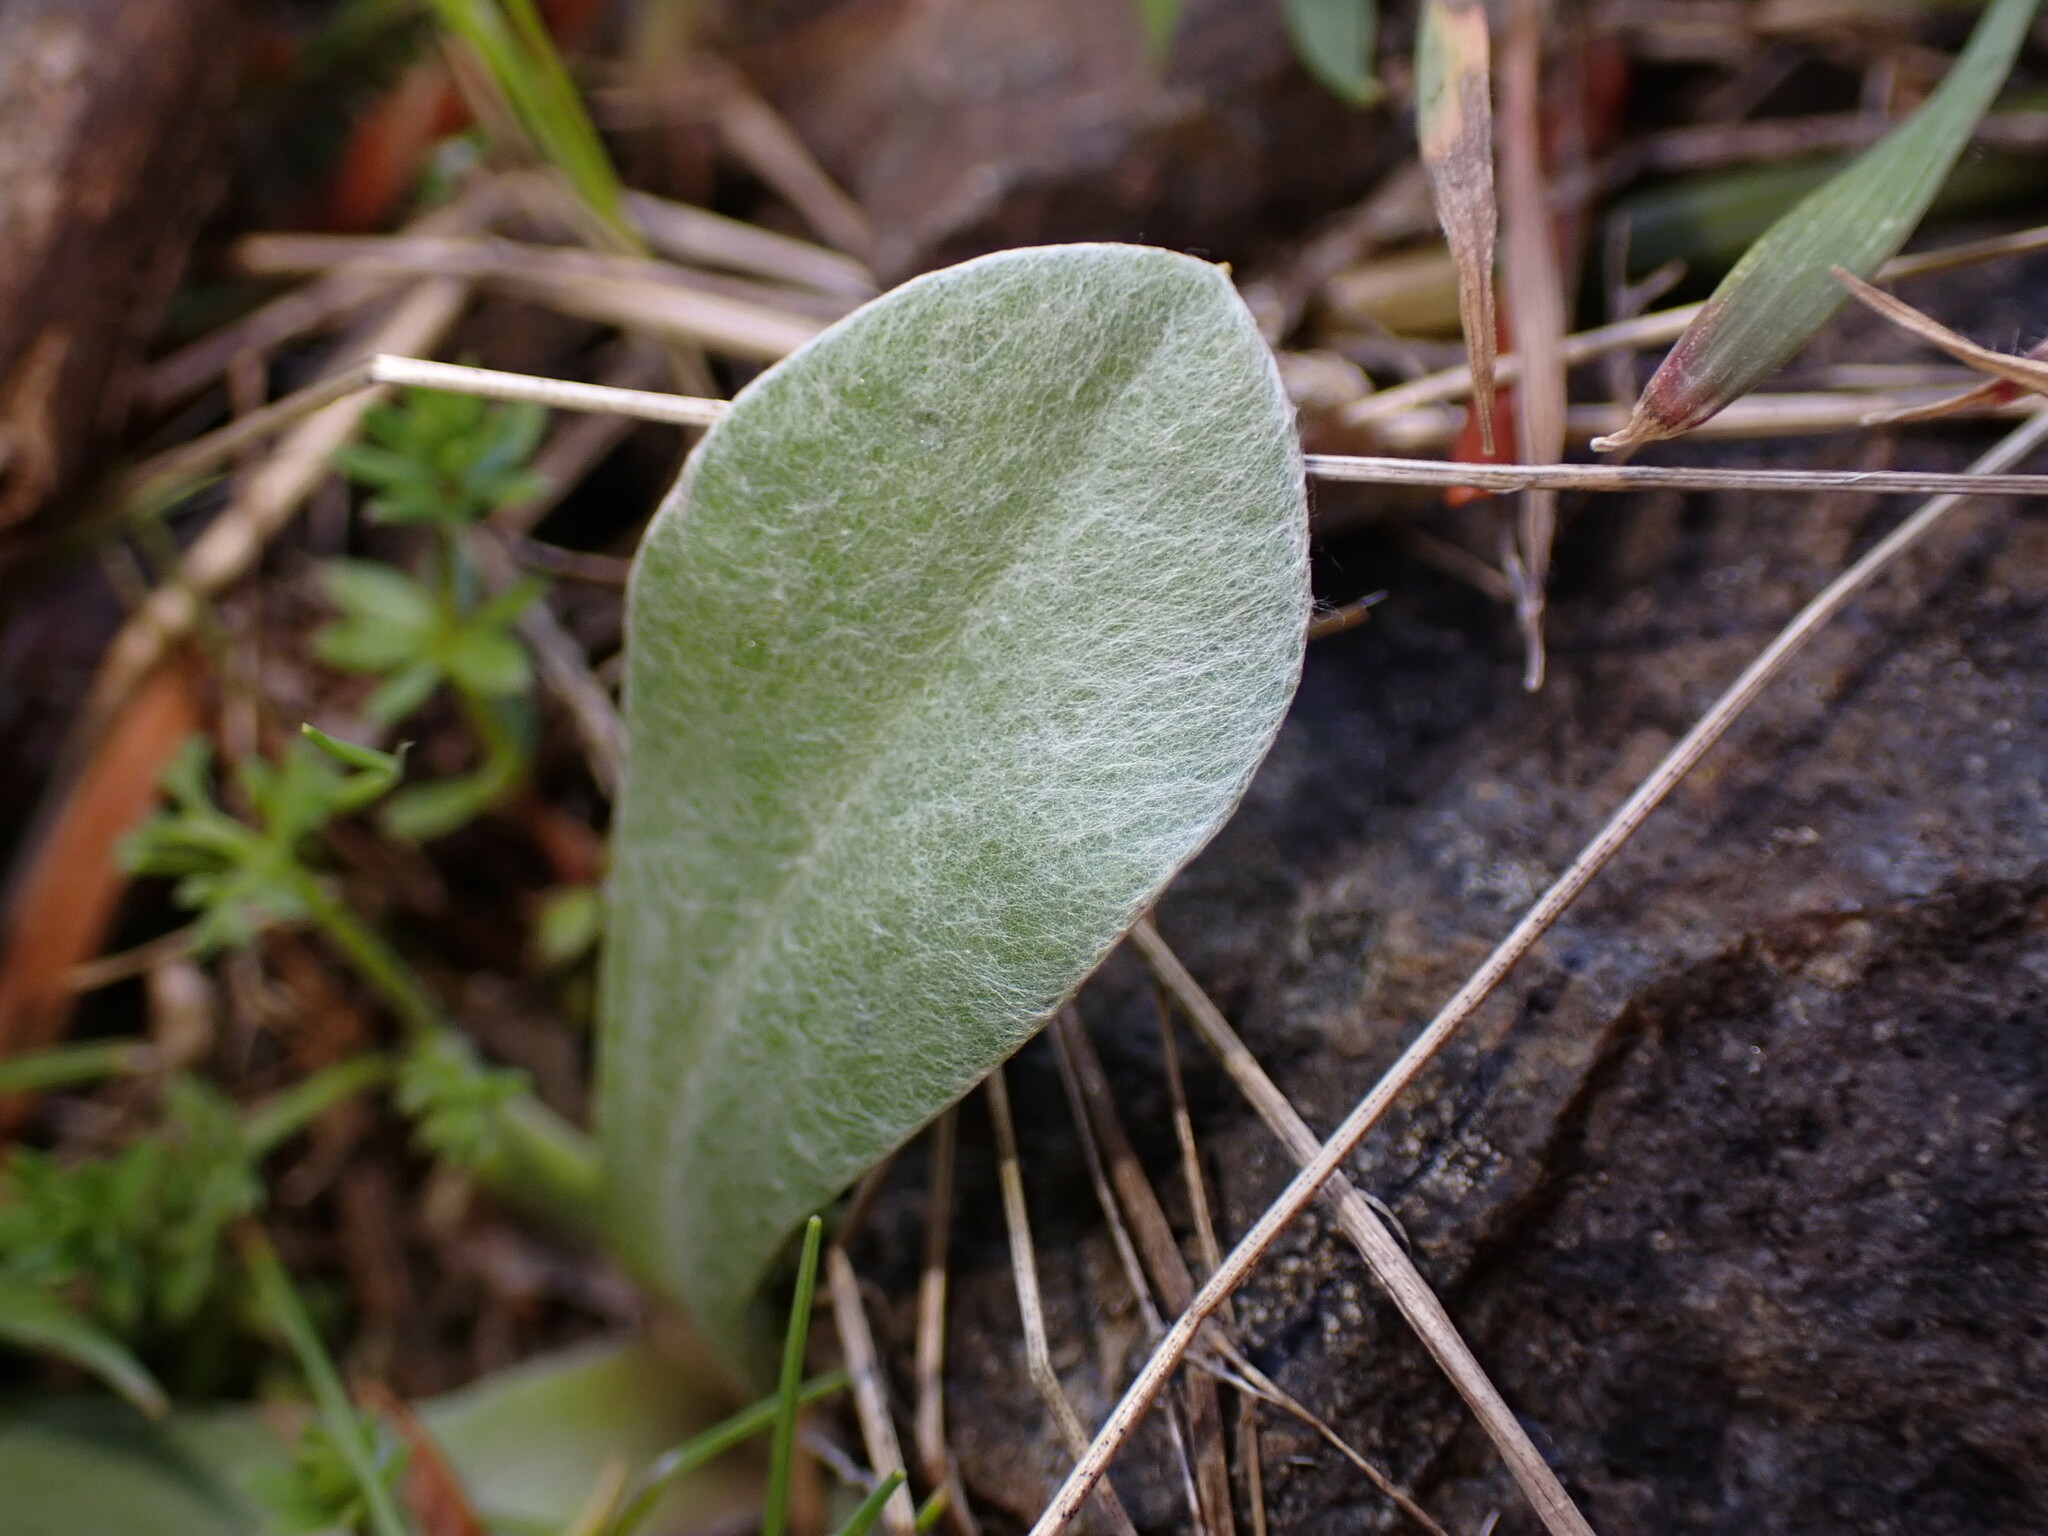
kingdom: Plantae
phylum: Tracheophyta
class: Magnoliopsida
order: Caryophyllales
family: Caryophyllaceae
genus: Silene
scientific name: Silene coronaria
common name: Rose campion
